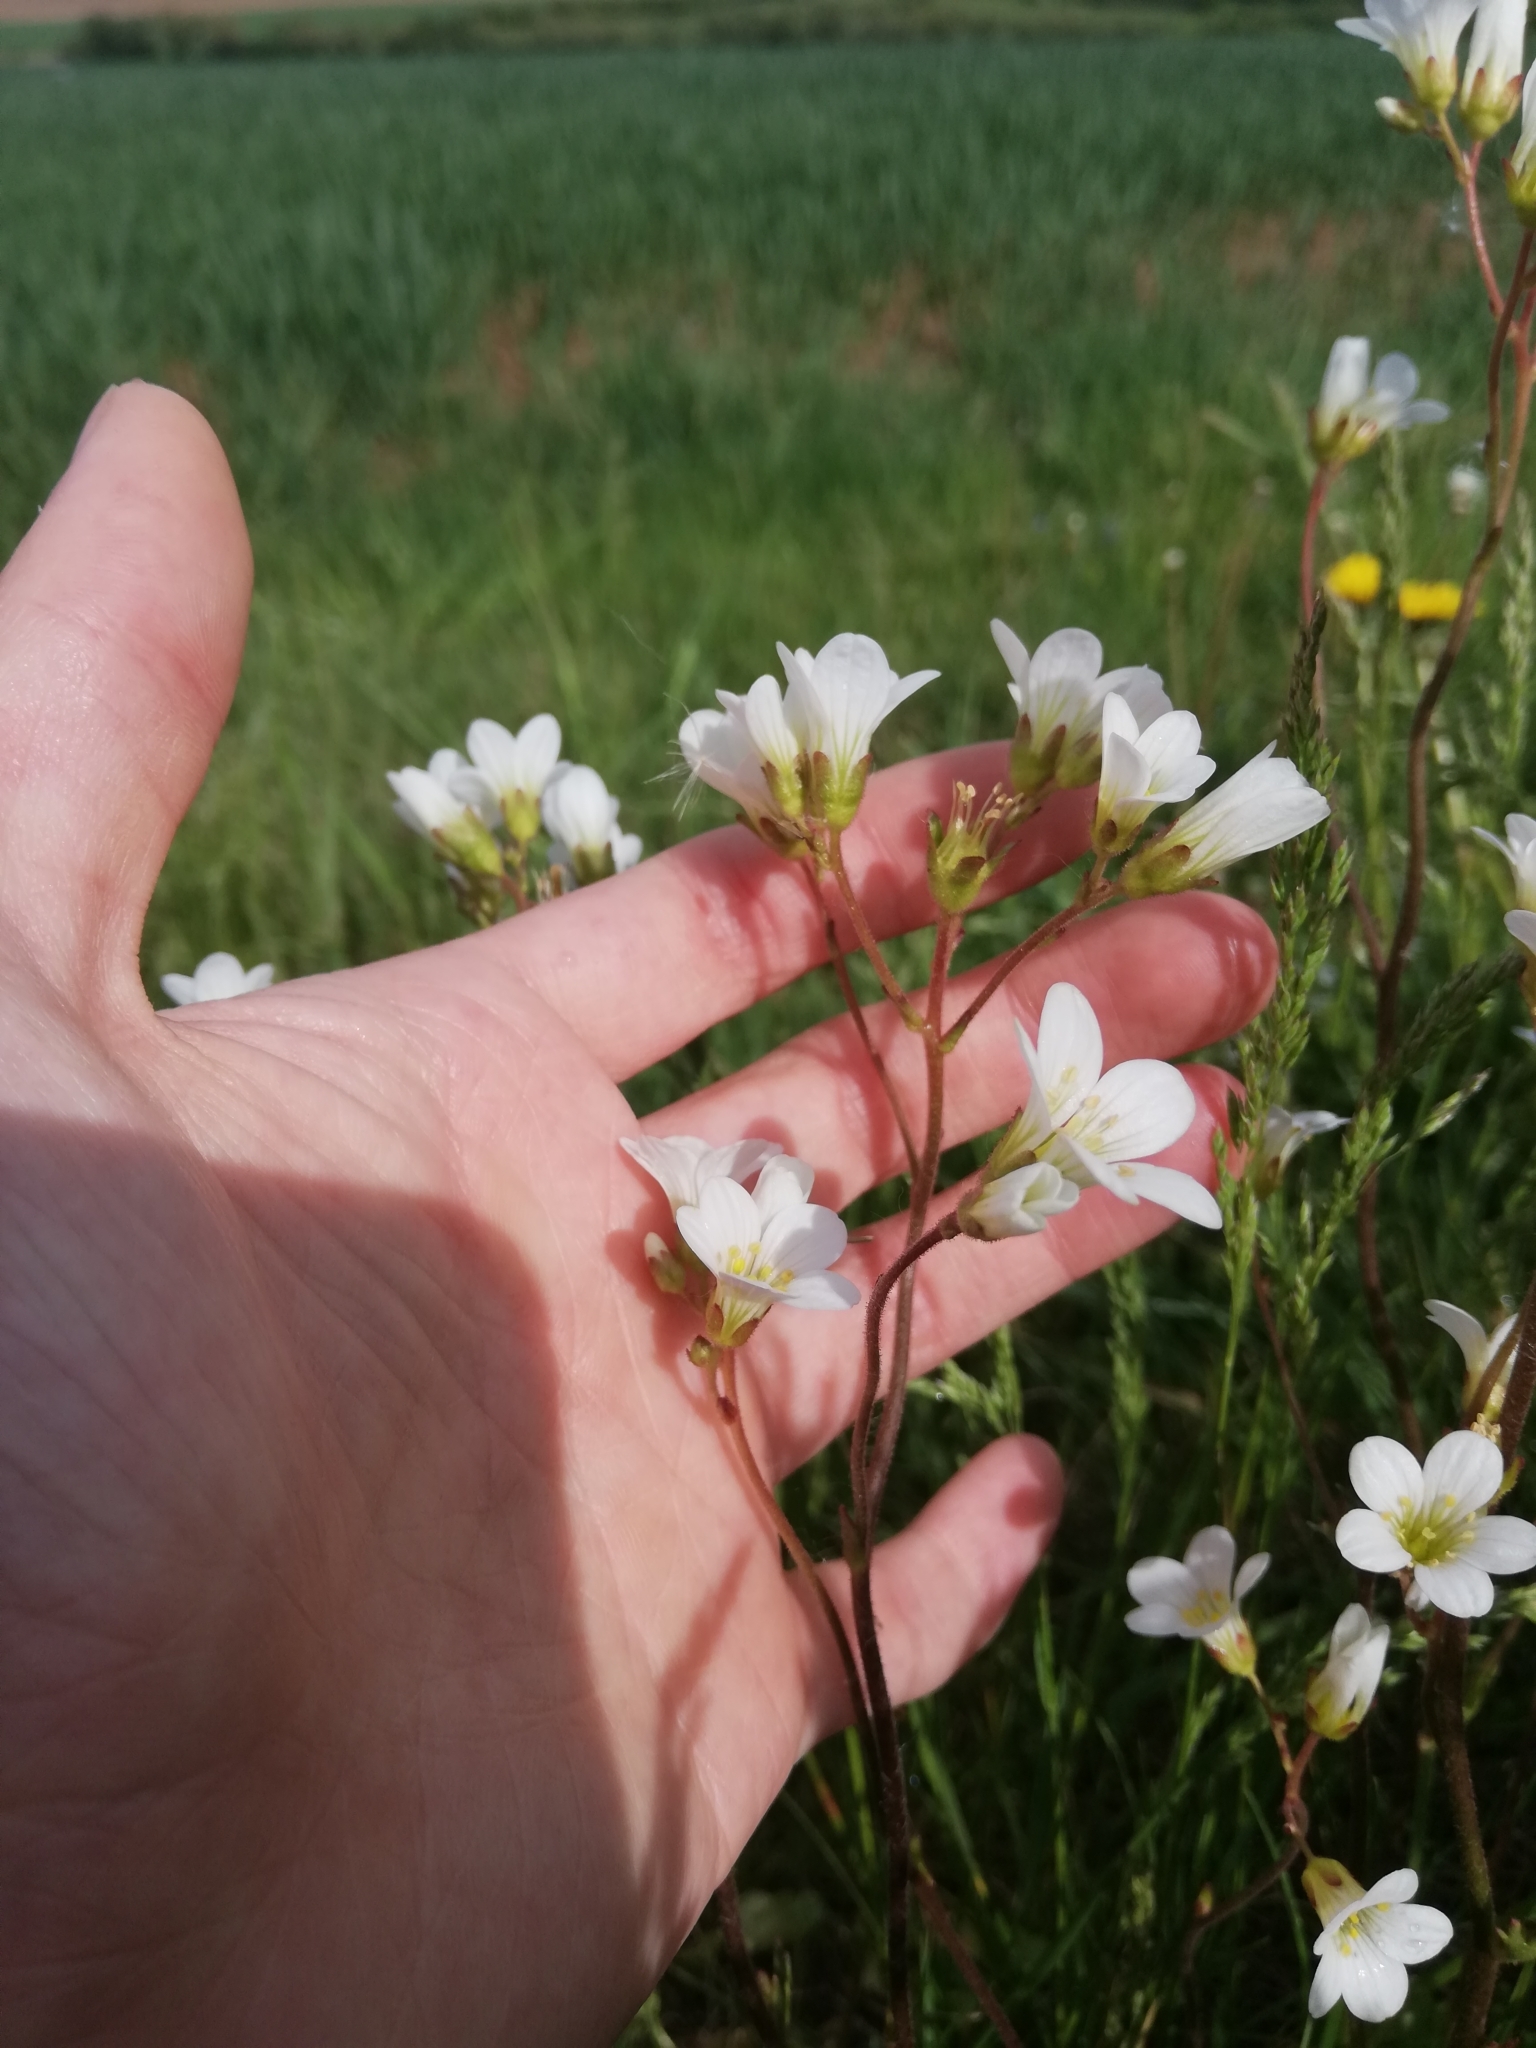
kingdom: Plantae
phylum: Tracheophyta
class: Magnoliopsida
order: Saxifragales
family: Saxifragaceae
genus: Saxifraga
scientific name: Saxifraga granulata
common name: Meadow saxifrage
